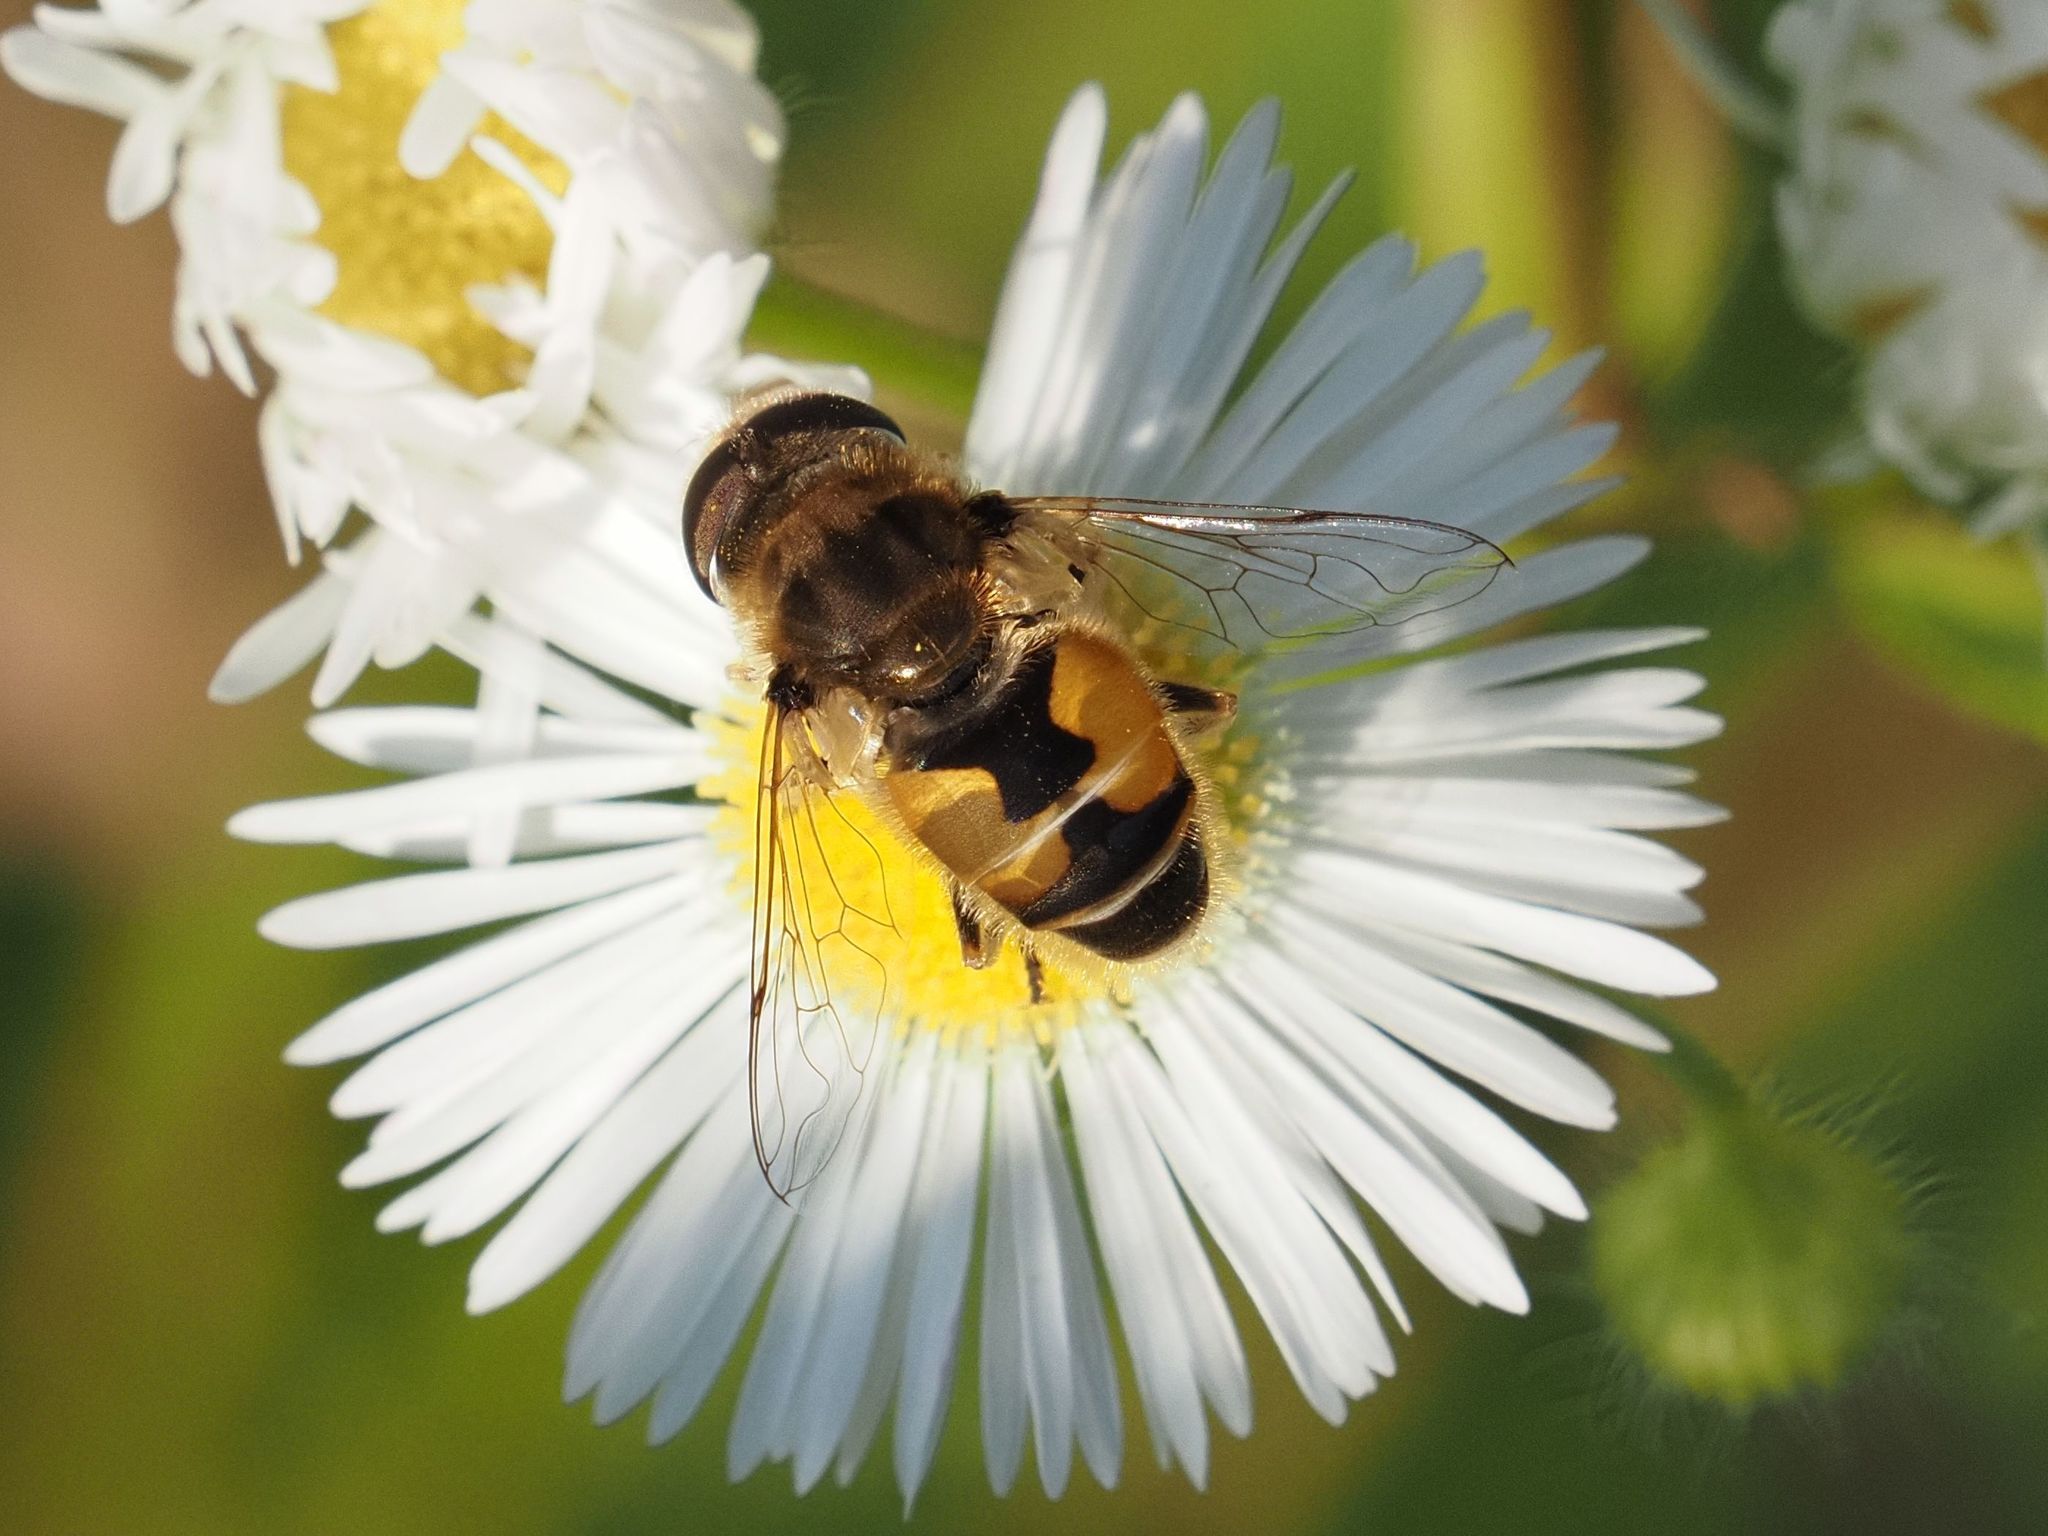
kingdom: Animalia
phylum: Arthropoda
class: Insecta
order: Diptera
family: Syrphidae
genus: Eristalis
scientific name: Eristalis arbustorum
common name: Hover fly
